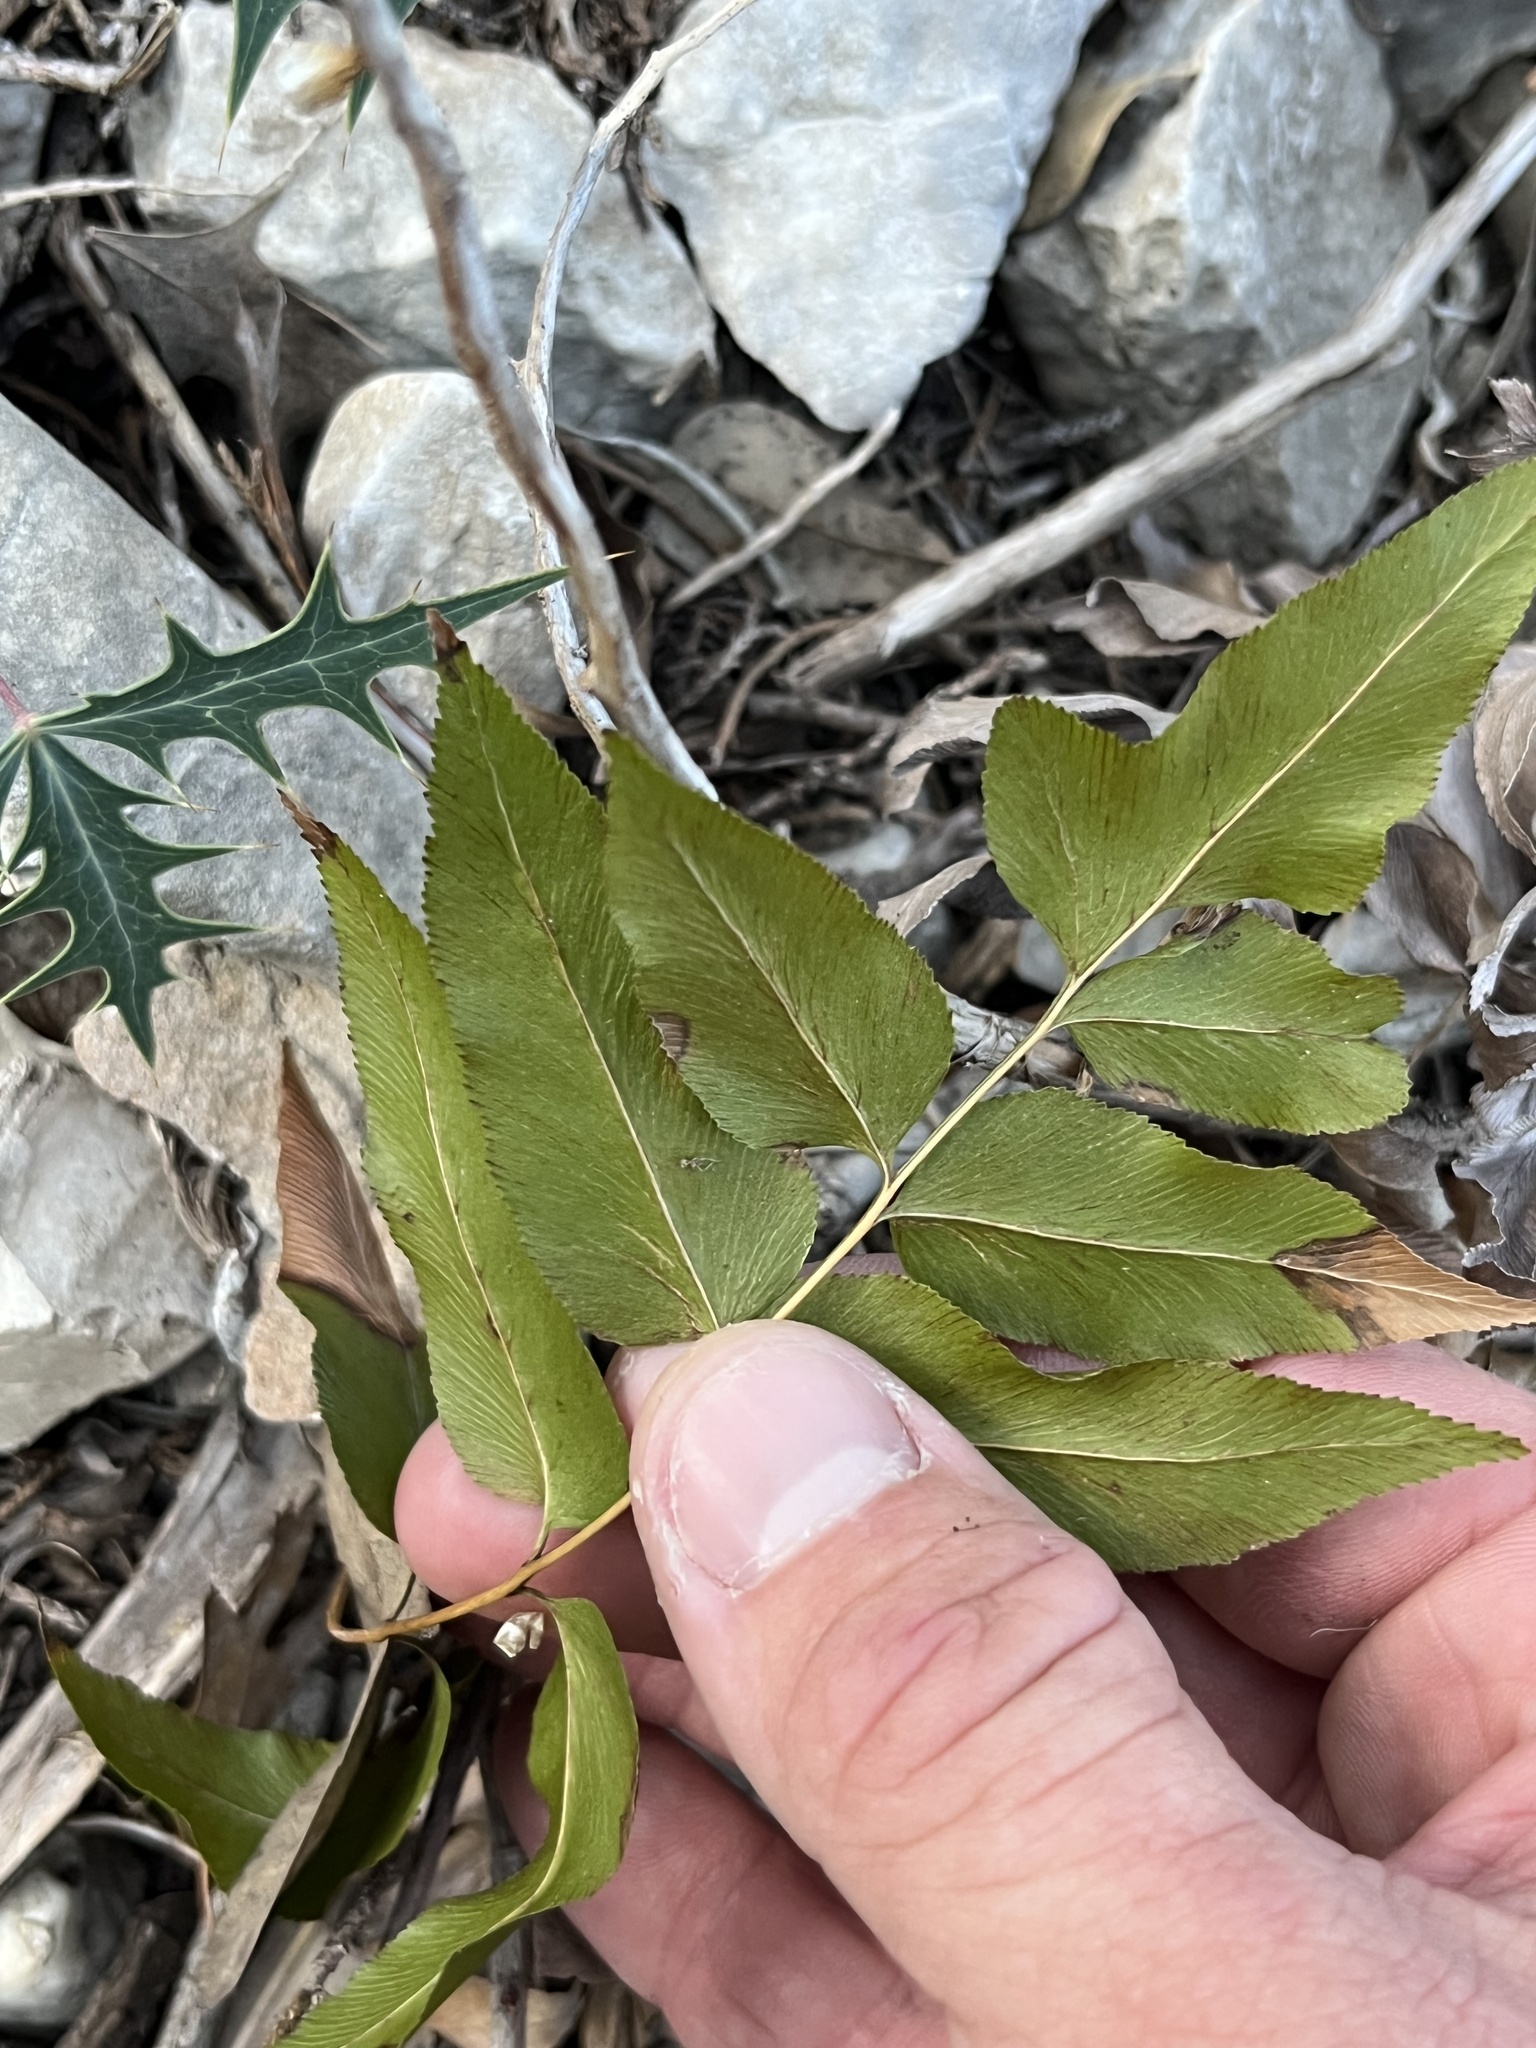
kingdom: Plantae
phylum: Tracheophyta
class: Polypodiopsida
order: Schizaeales
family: Anemiaceae
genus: Anemia
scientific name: Anemia mexicana
